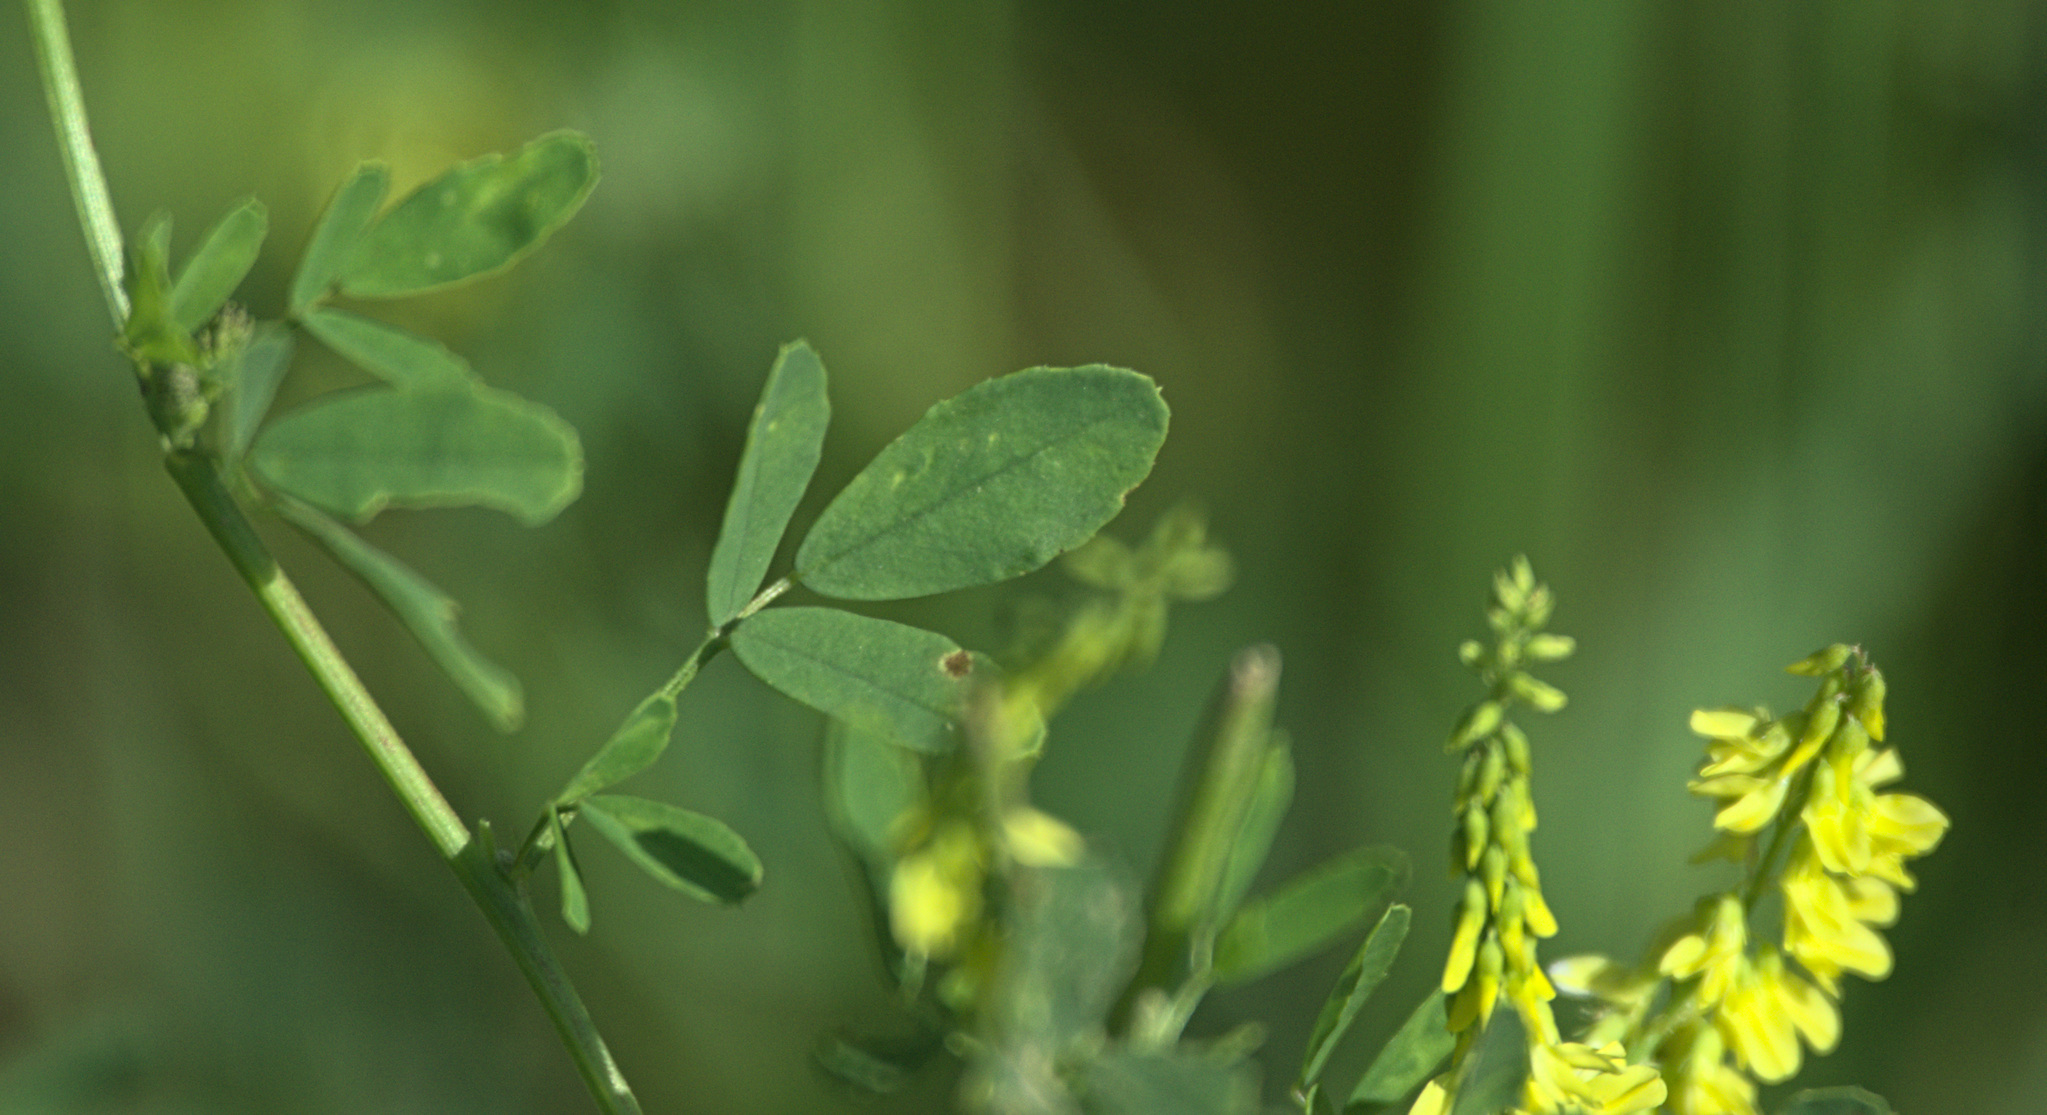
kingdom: Plantae
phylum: Tracheophyta
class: Magnoliopsida
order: Fabales
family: Fabaceae
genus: Melilotus
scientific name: Melilotus officinalis
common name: Sweetclover
